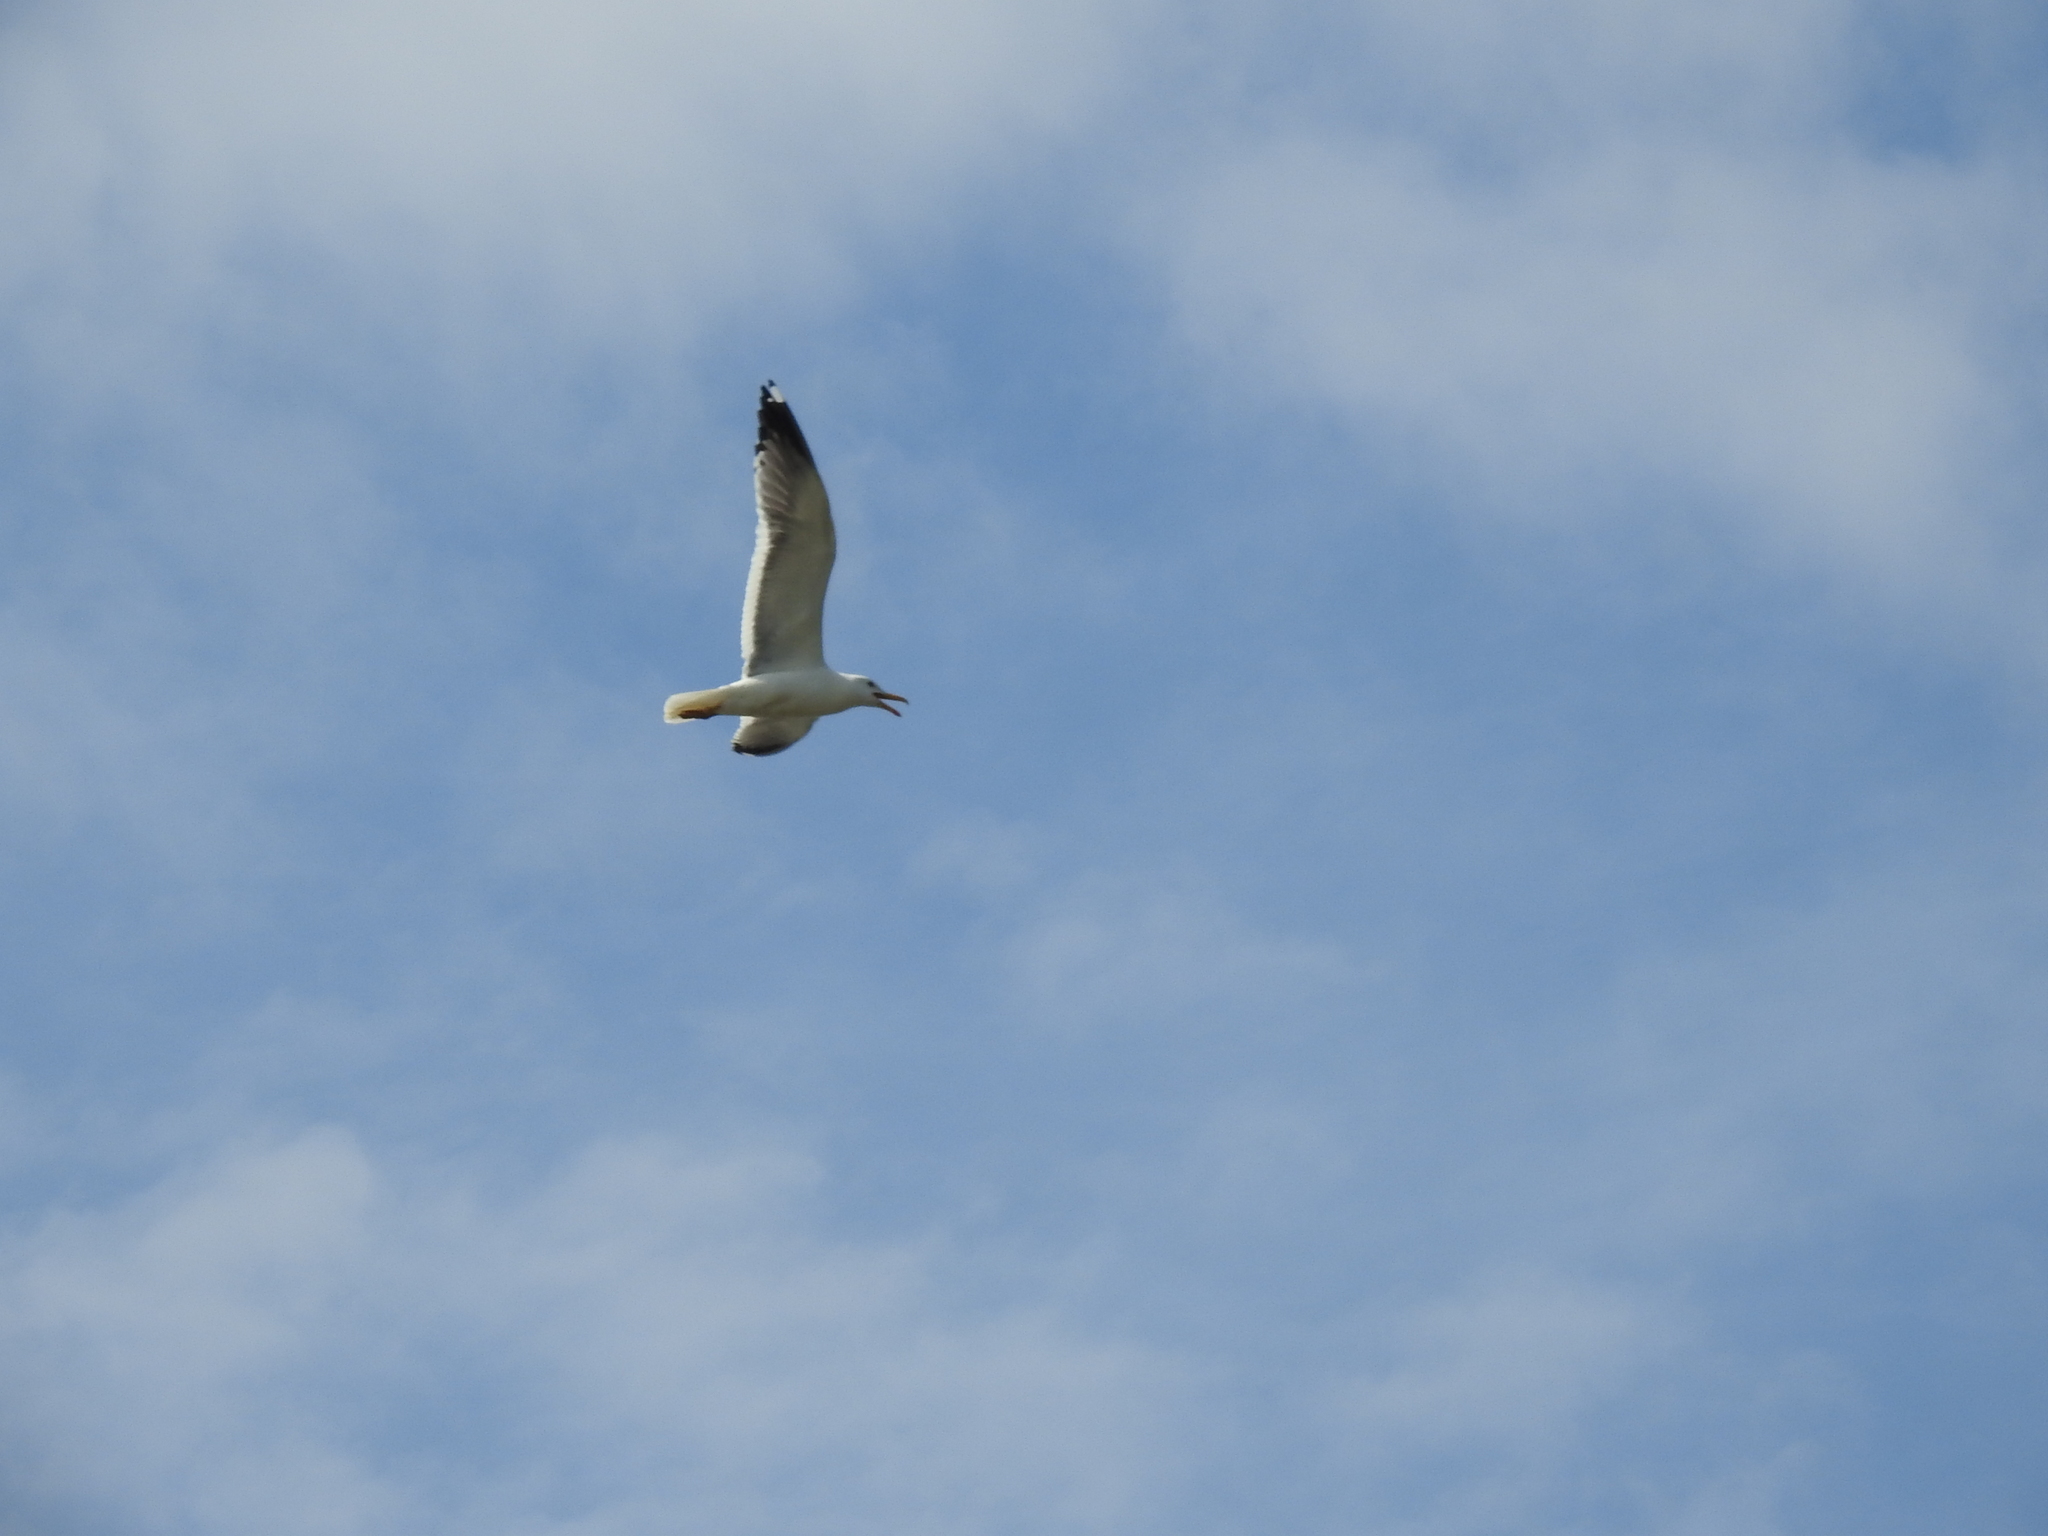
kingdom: Animalia
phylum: Chordata
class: Aves
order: Charadriiformes
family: Laridae
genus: Larus
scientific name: Larus fuscus
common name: Lesser black-backed gull
